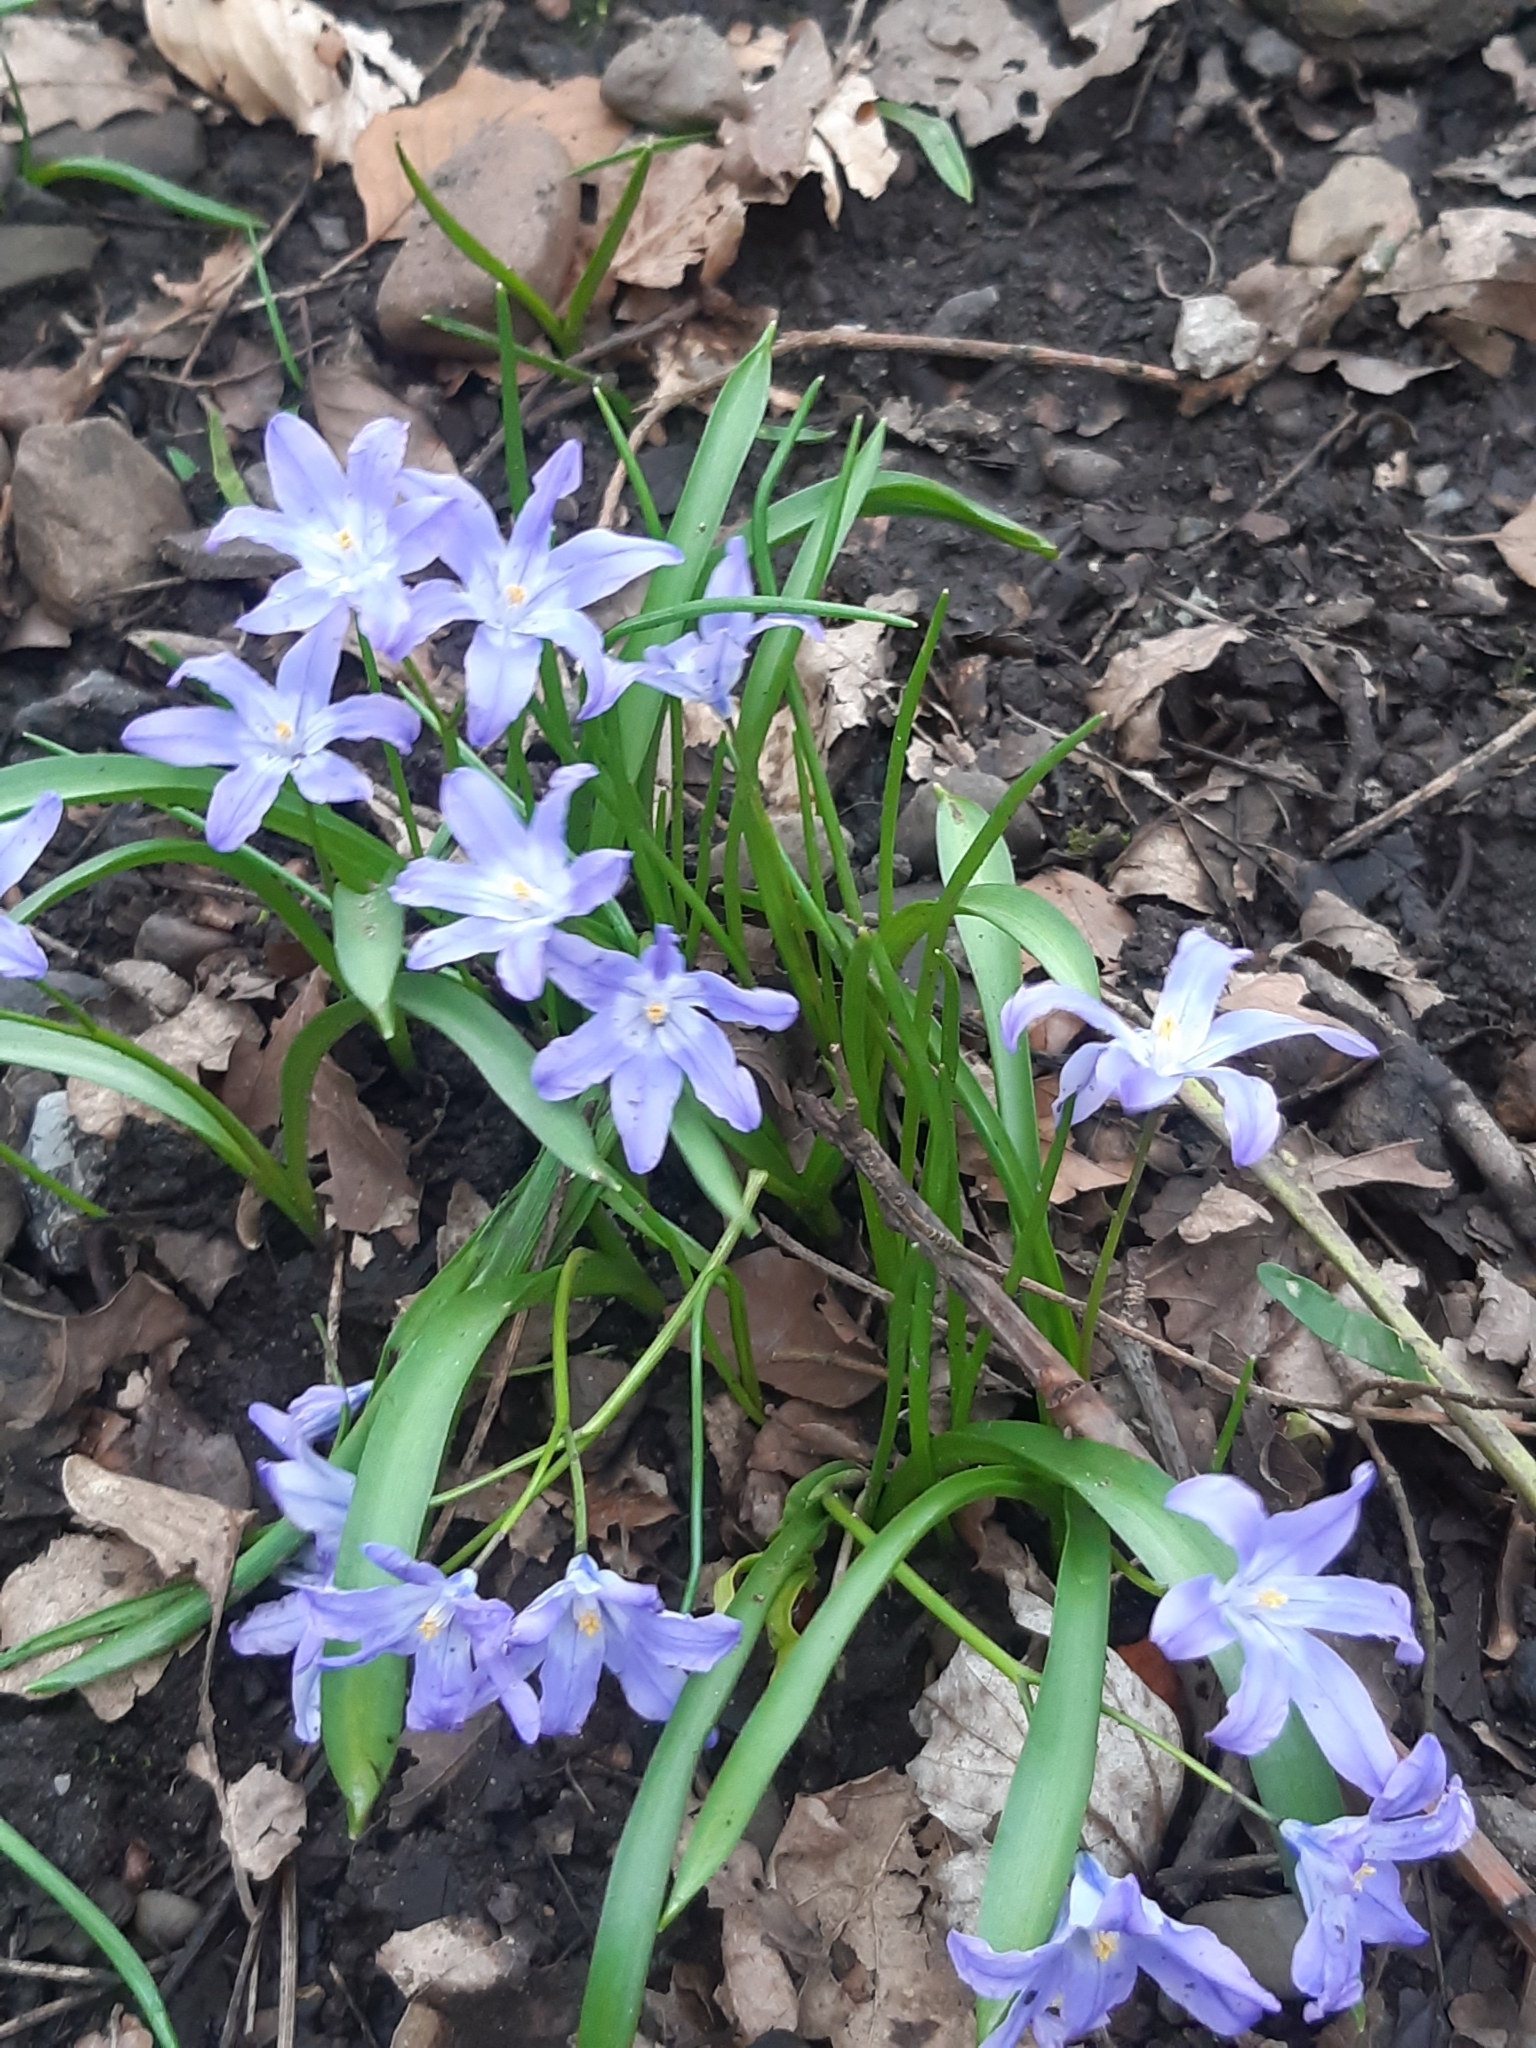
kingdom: Plantae
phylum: Tracheophyta
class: Liliopsida
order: Asparagales
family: Asparagaceae
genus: Scilla
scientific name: Scilla luciliae
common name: Boissier's glory-of-the-snow
